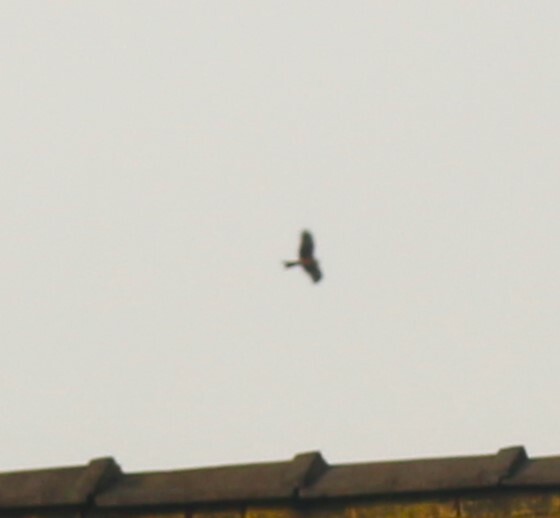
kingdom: Animalia
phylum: Chordata
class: Aves
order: Accipitriformes
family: Accipitridae
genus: Milvus
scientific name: Milvus milvus
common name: Red kite
